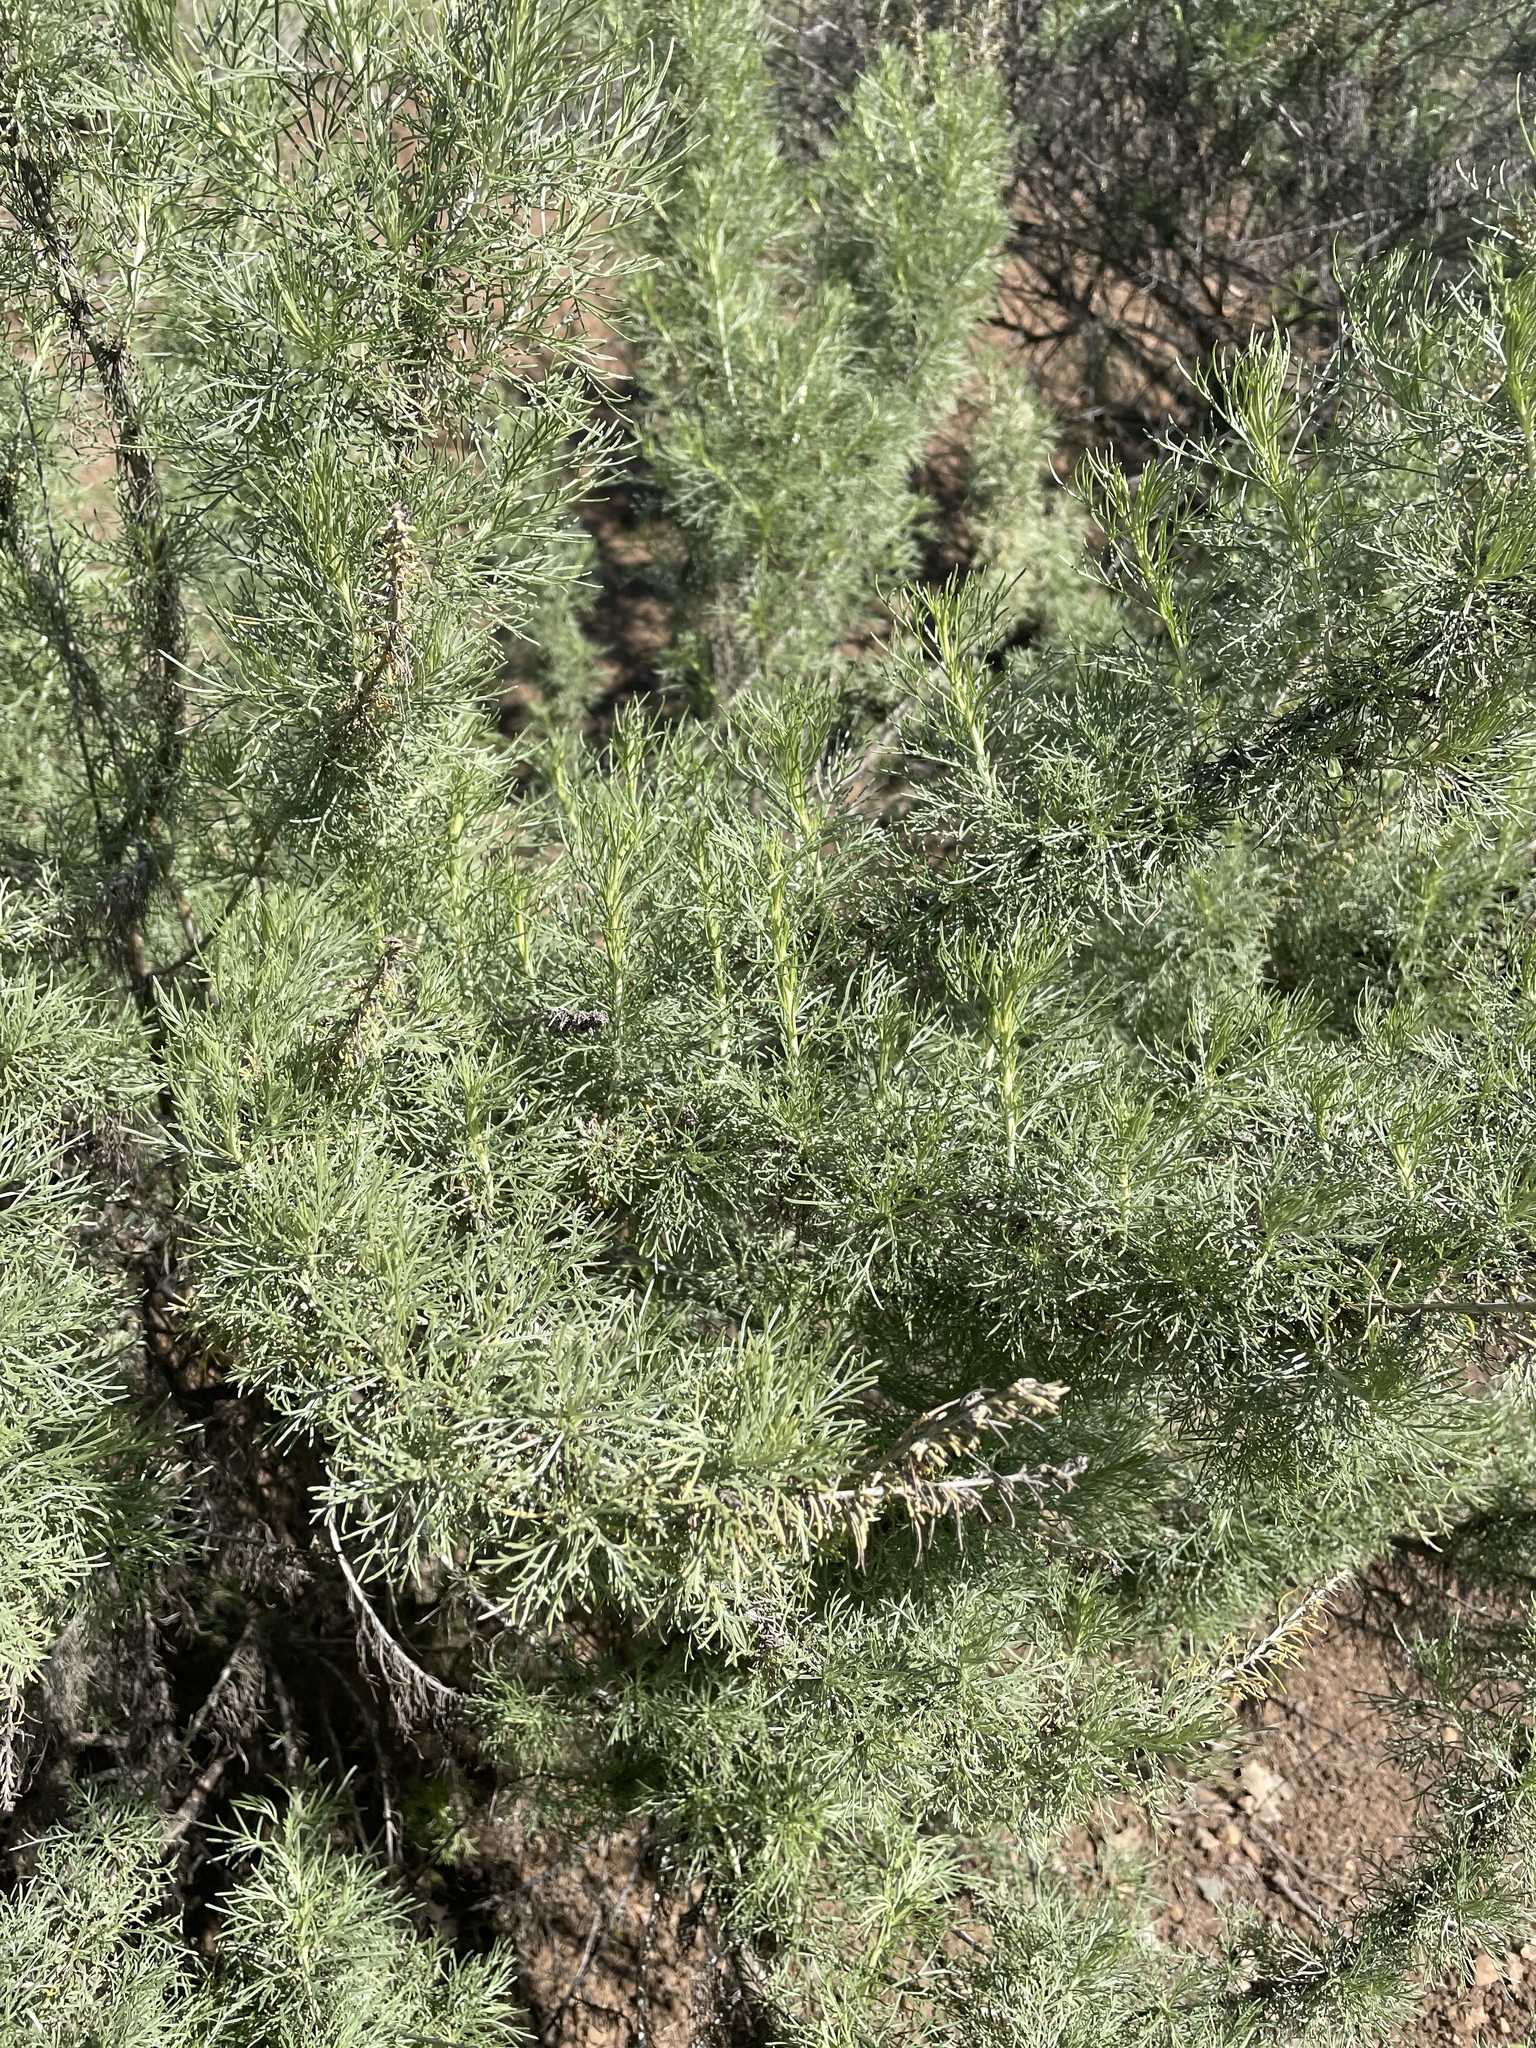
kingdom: Plantae
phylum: Tracheophyta
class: Magnoliopsida
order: Asterales
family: Asteraceae
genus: Artemisia
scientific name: Artemisia californica
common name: California sagebrush
